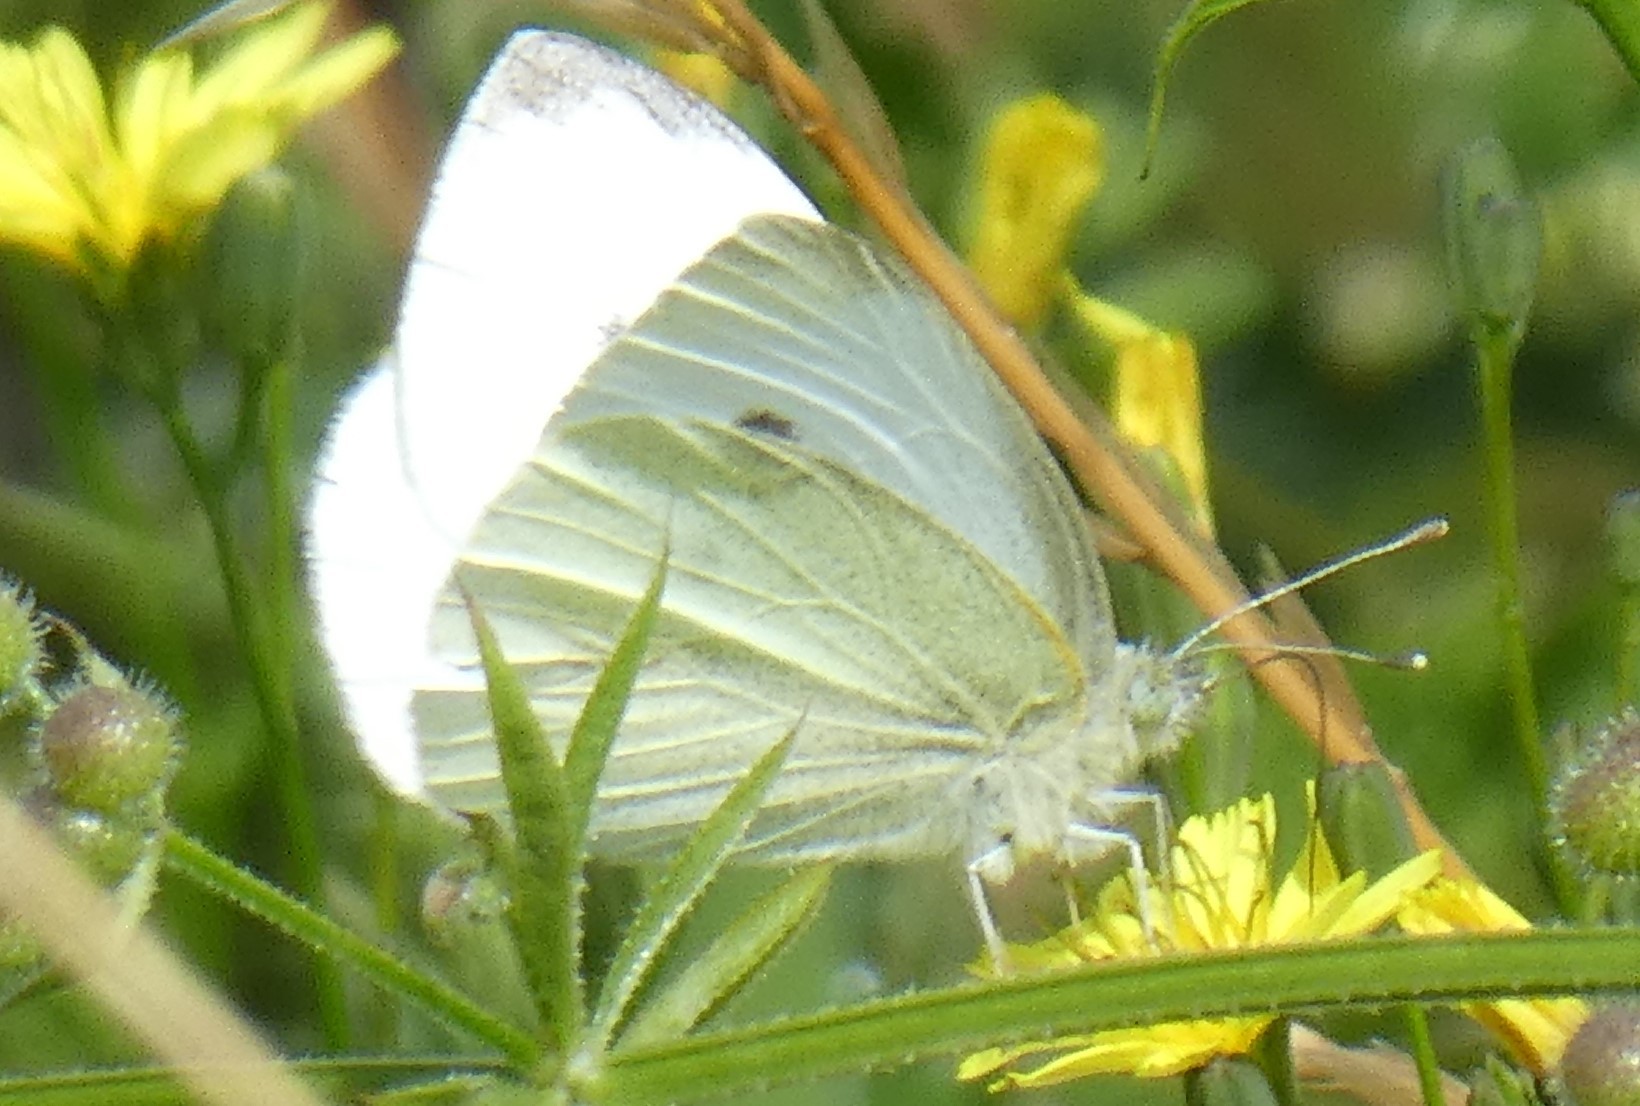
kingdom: Animalia
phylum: Arthropoda
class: Insecta
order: Lepidoptera
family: Pieridae
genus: Pieris
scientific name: Pieris rapae
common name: Small white
